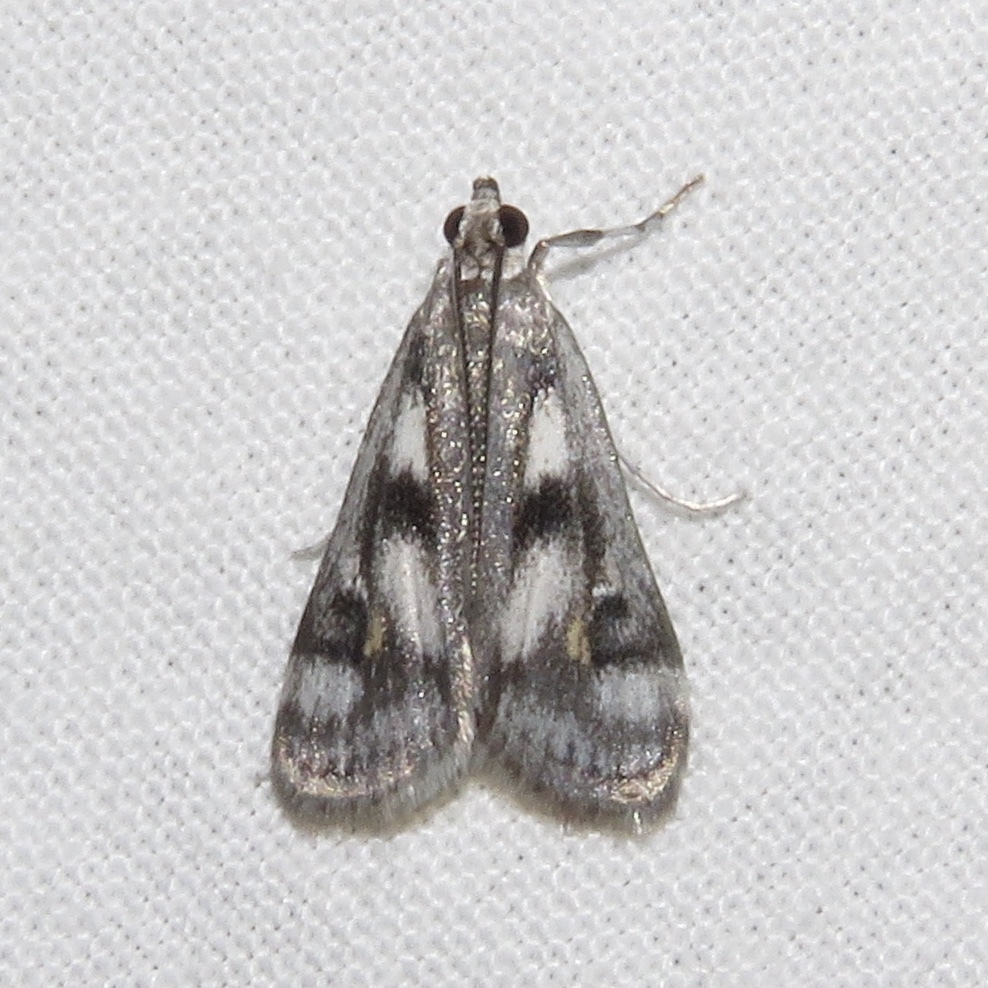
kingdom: Animalia
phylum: Arthropoda
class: Insecta
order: Lepidoptera
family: Crambidae
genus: Parapoynx
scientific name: Parapoynx maculalis
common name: Polymorphic pondweed moth
